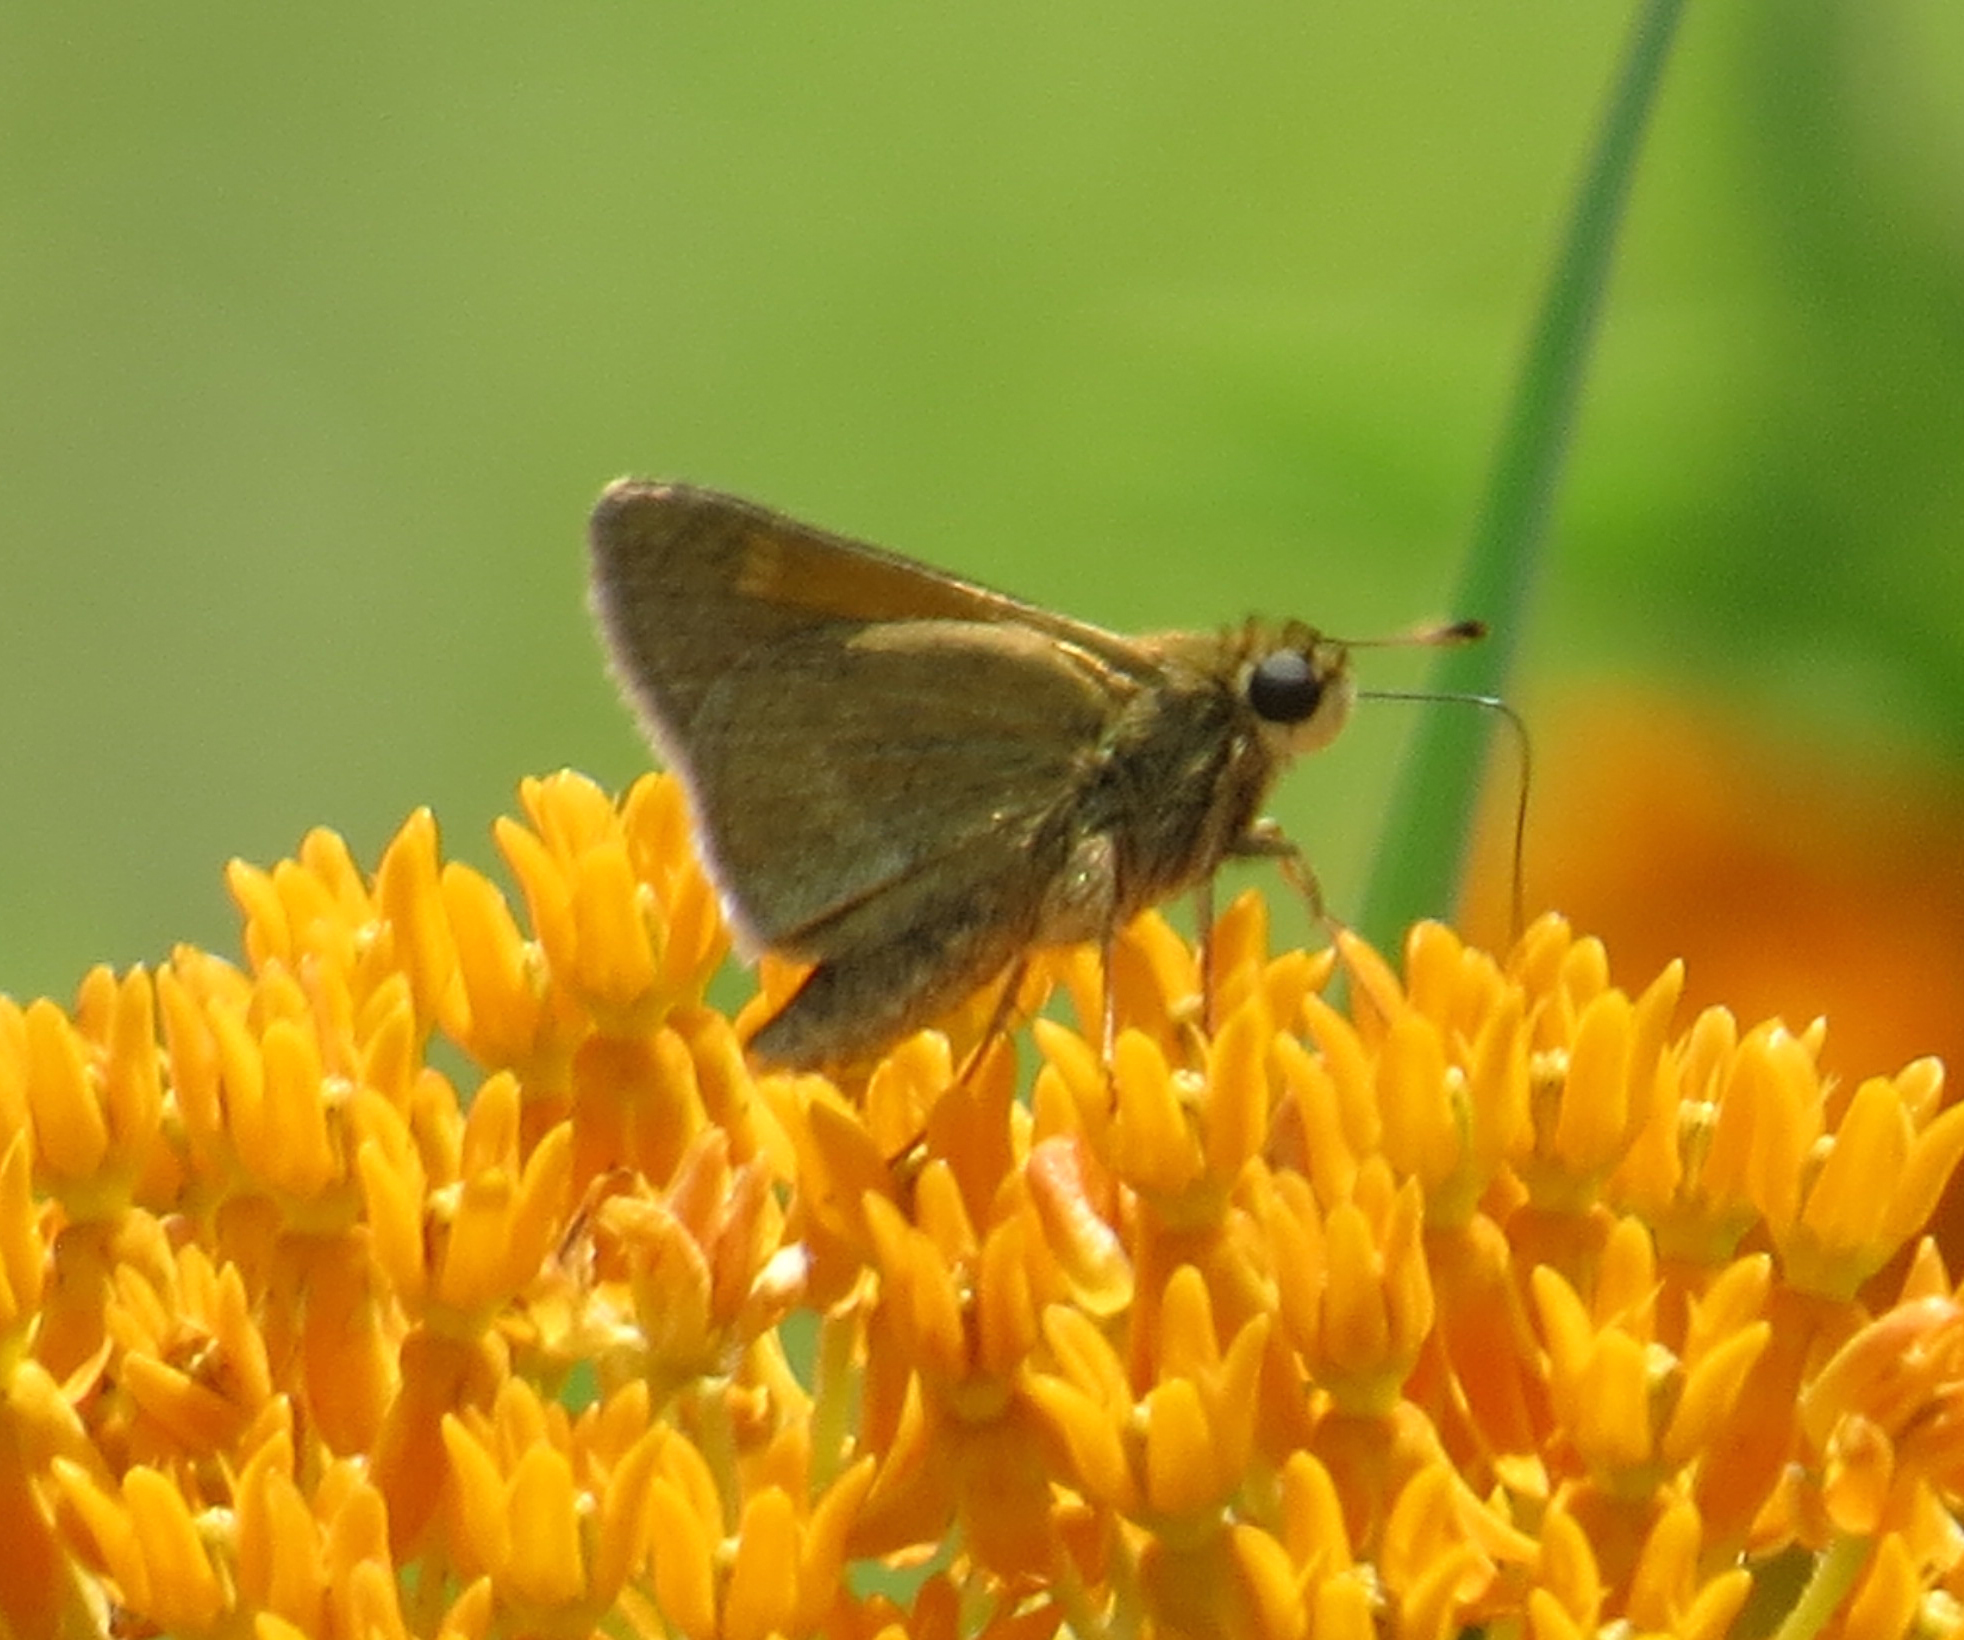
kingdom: Animalia
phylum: Arthropoda
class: Insecta
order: Lepidoptera
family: Hesperiidae
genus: Polites
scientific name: Polites themistocles
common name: Tawny-edged skipper
